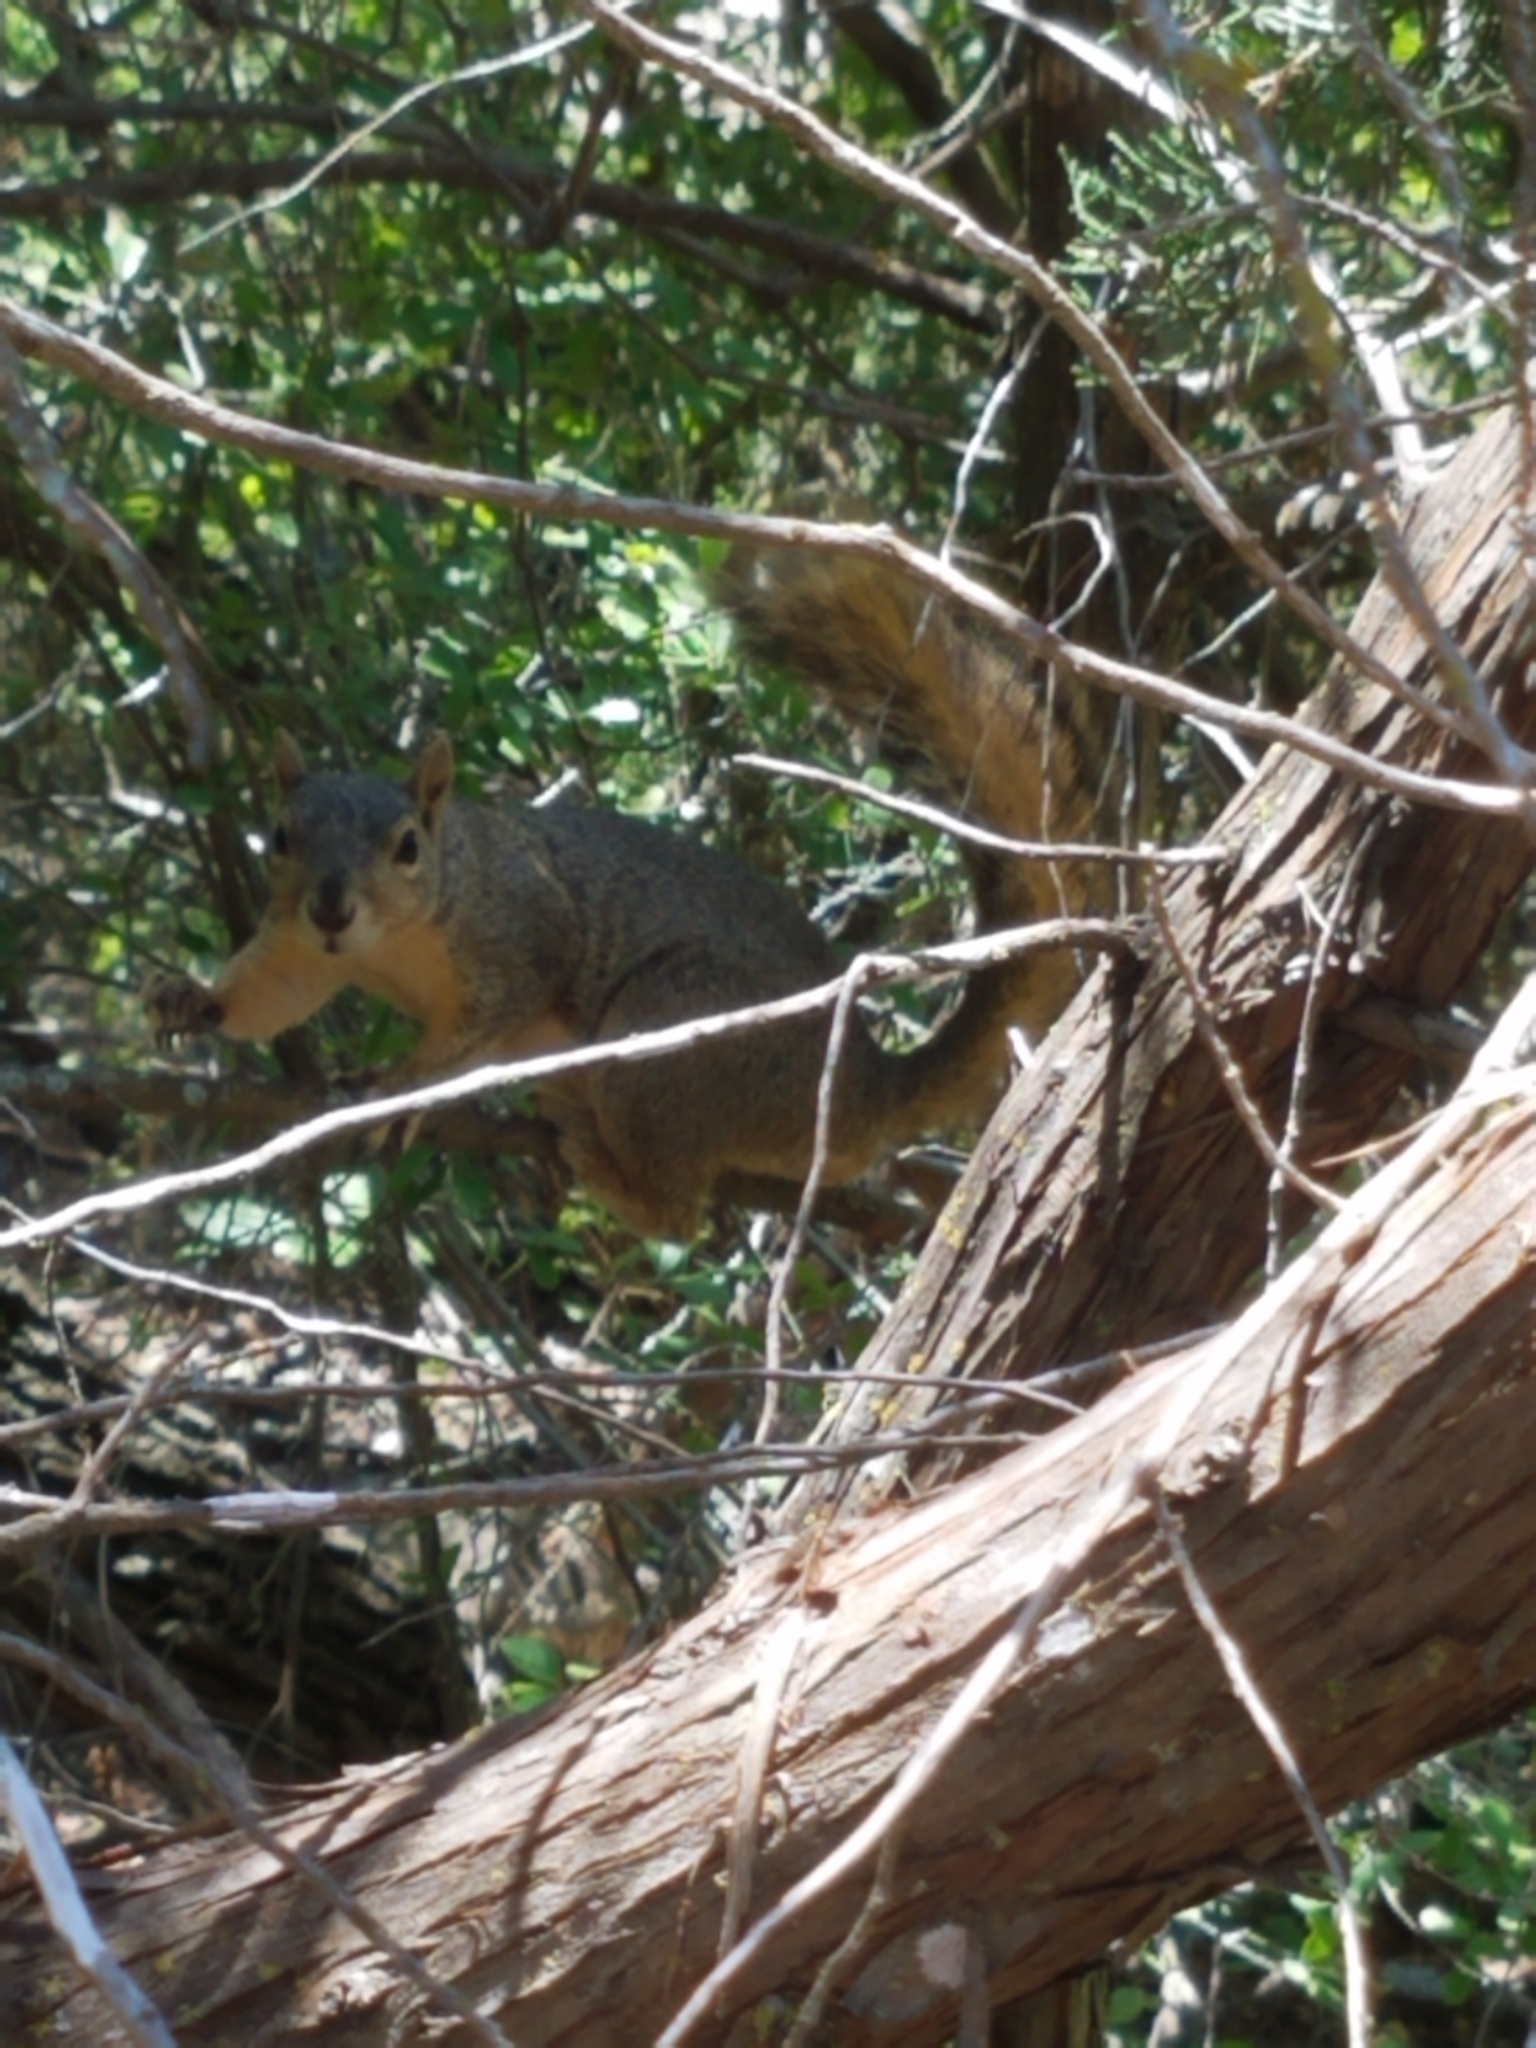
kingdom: Animalia
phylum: Chordata
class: Mammalia
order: Rodentia
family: Sciuridae
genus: Sciurus
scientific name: Sciurus niger
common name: Fox squirrel
